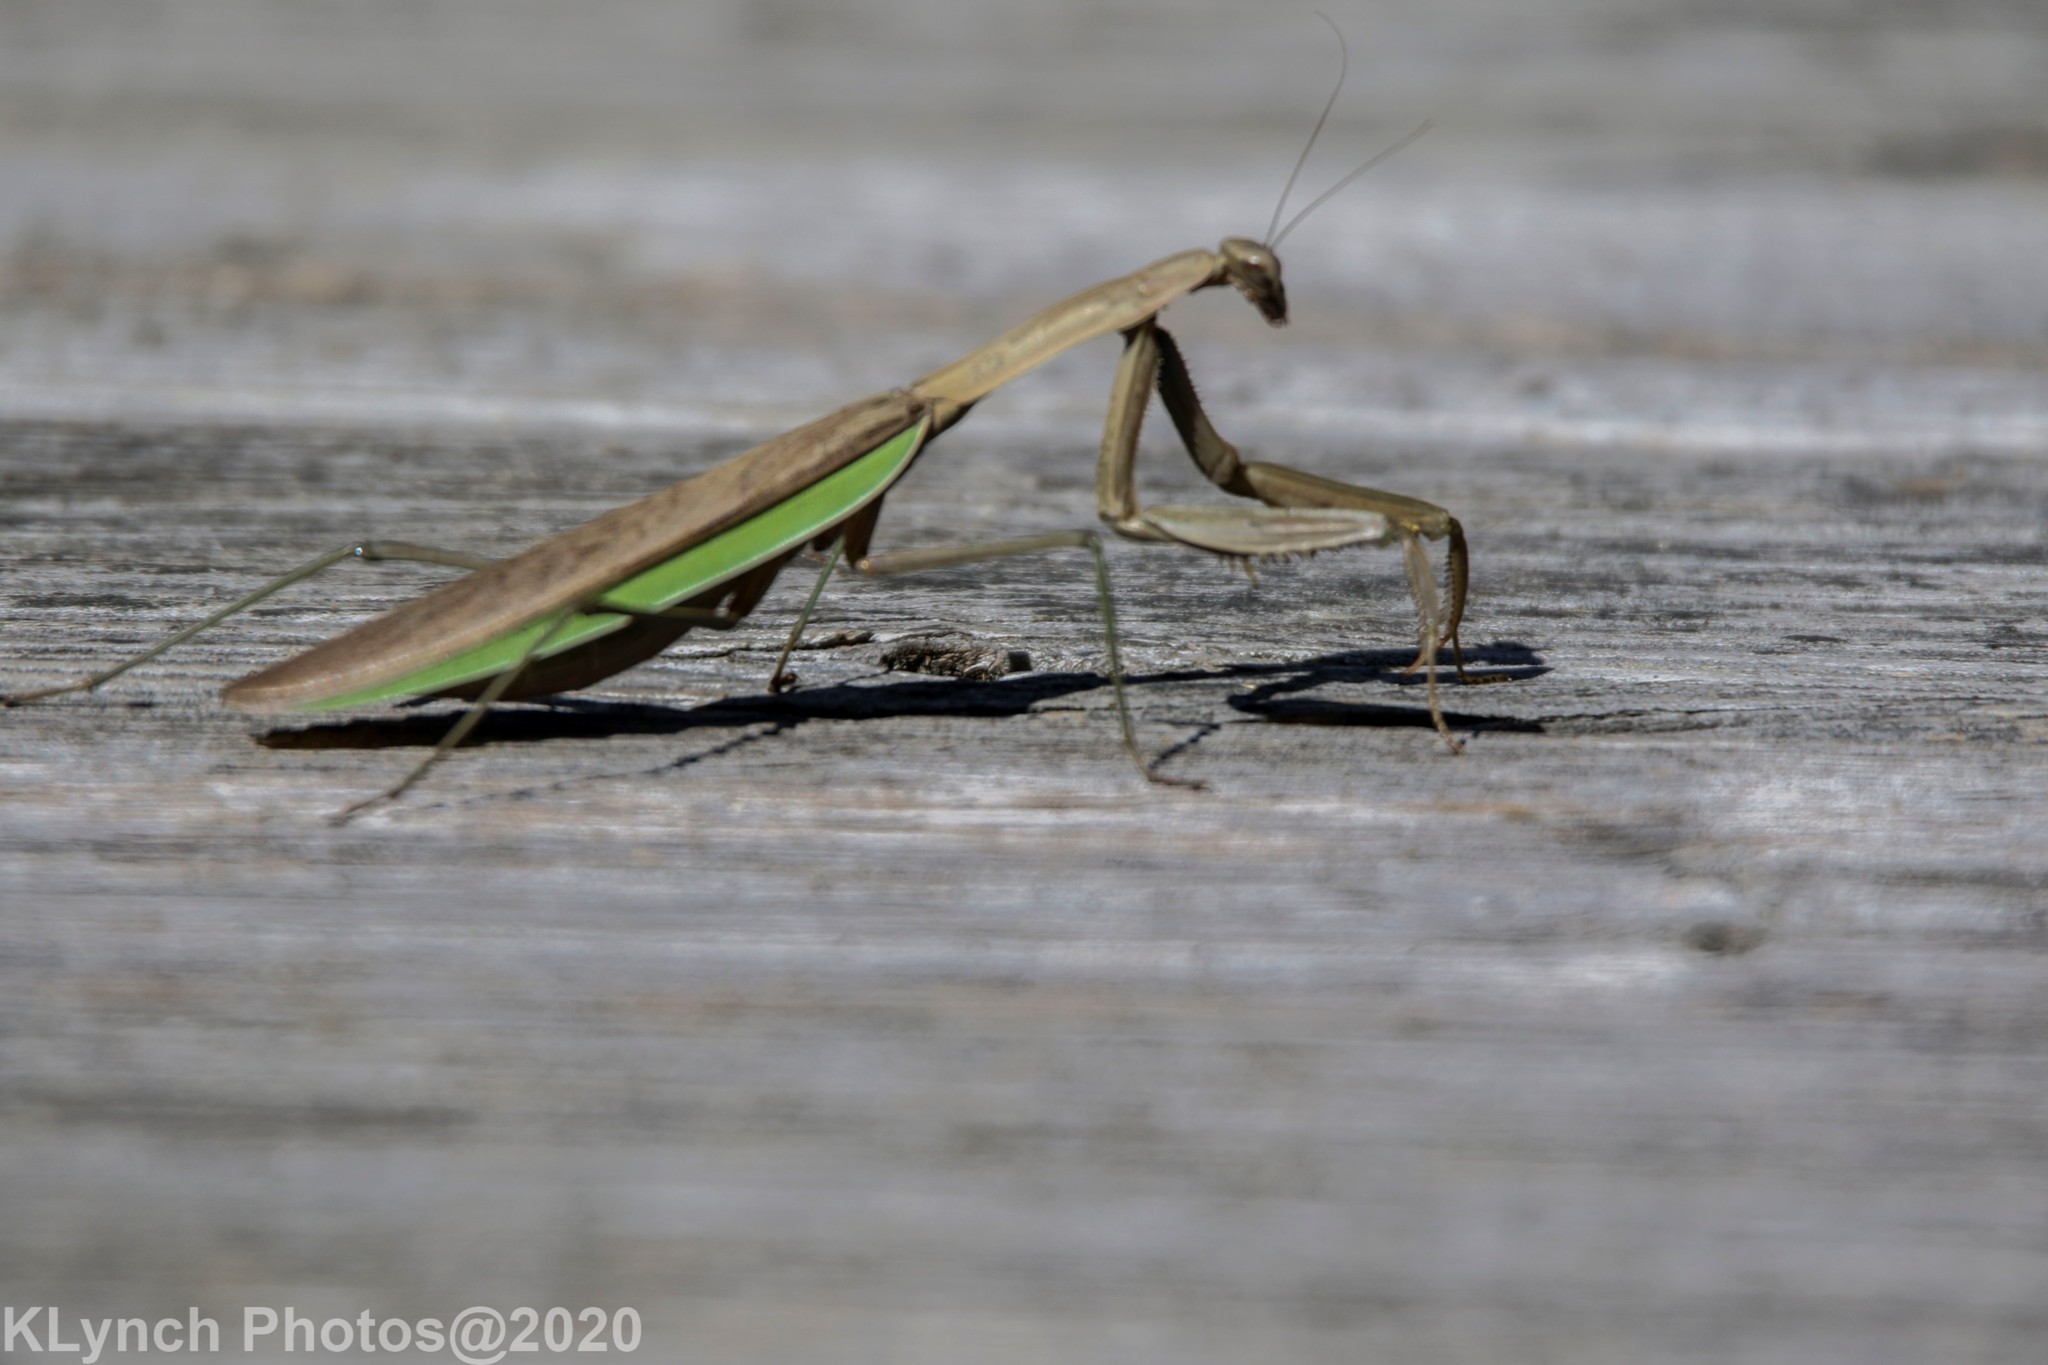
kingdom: Animalia
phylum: Arthropoda
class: Insecta
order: Mantodea
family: Mantidae
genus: Tenodera
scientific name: Tenodera sinensis
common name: Chinese mantis
